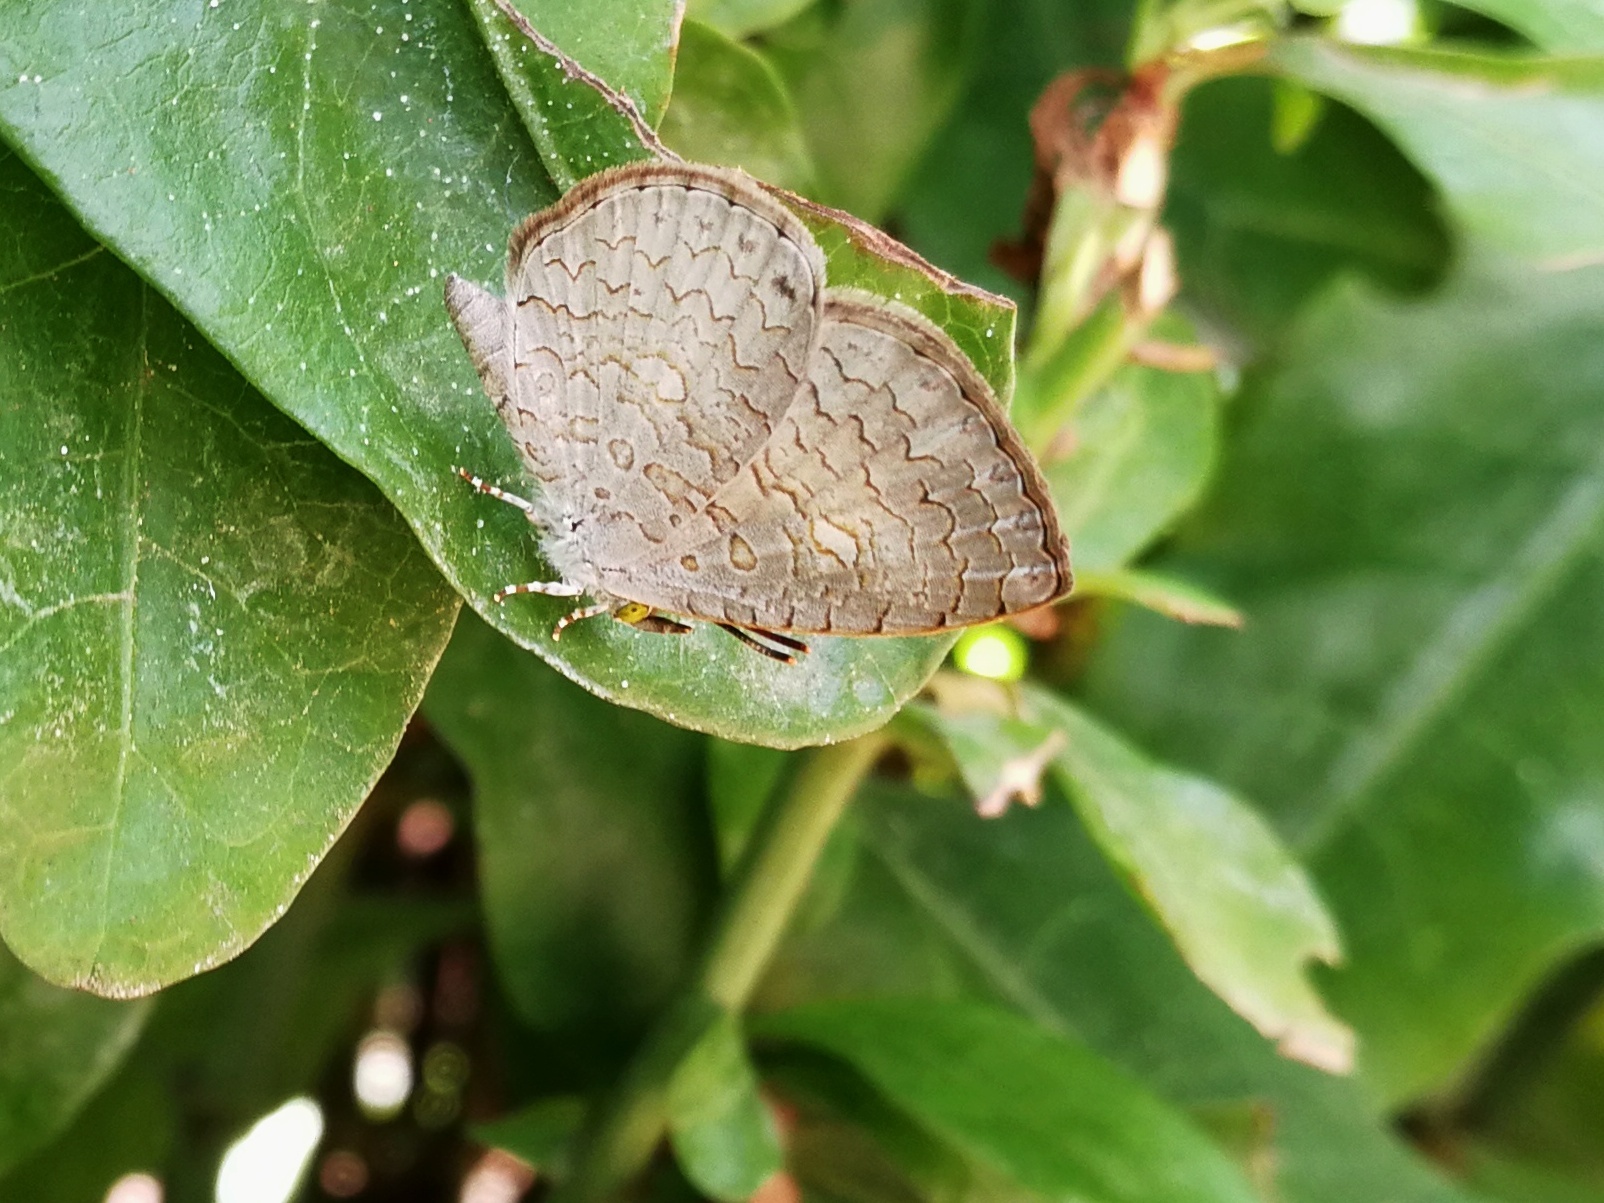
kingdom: Animalia
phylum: Arthropoda
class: Insecta
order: Lepidoptera
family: Lycaenidae
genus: Spalgis
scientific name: Spalgis epius
